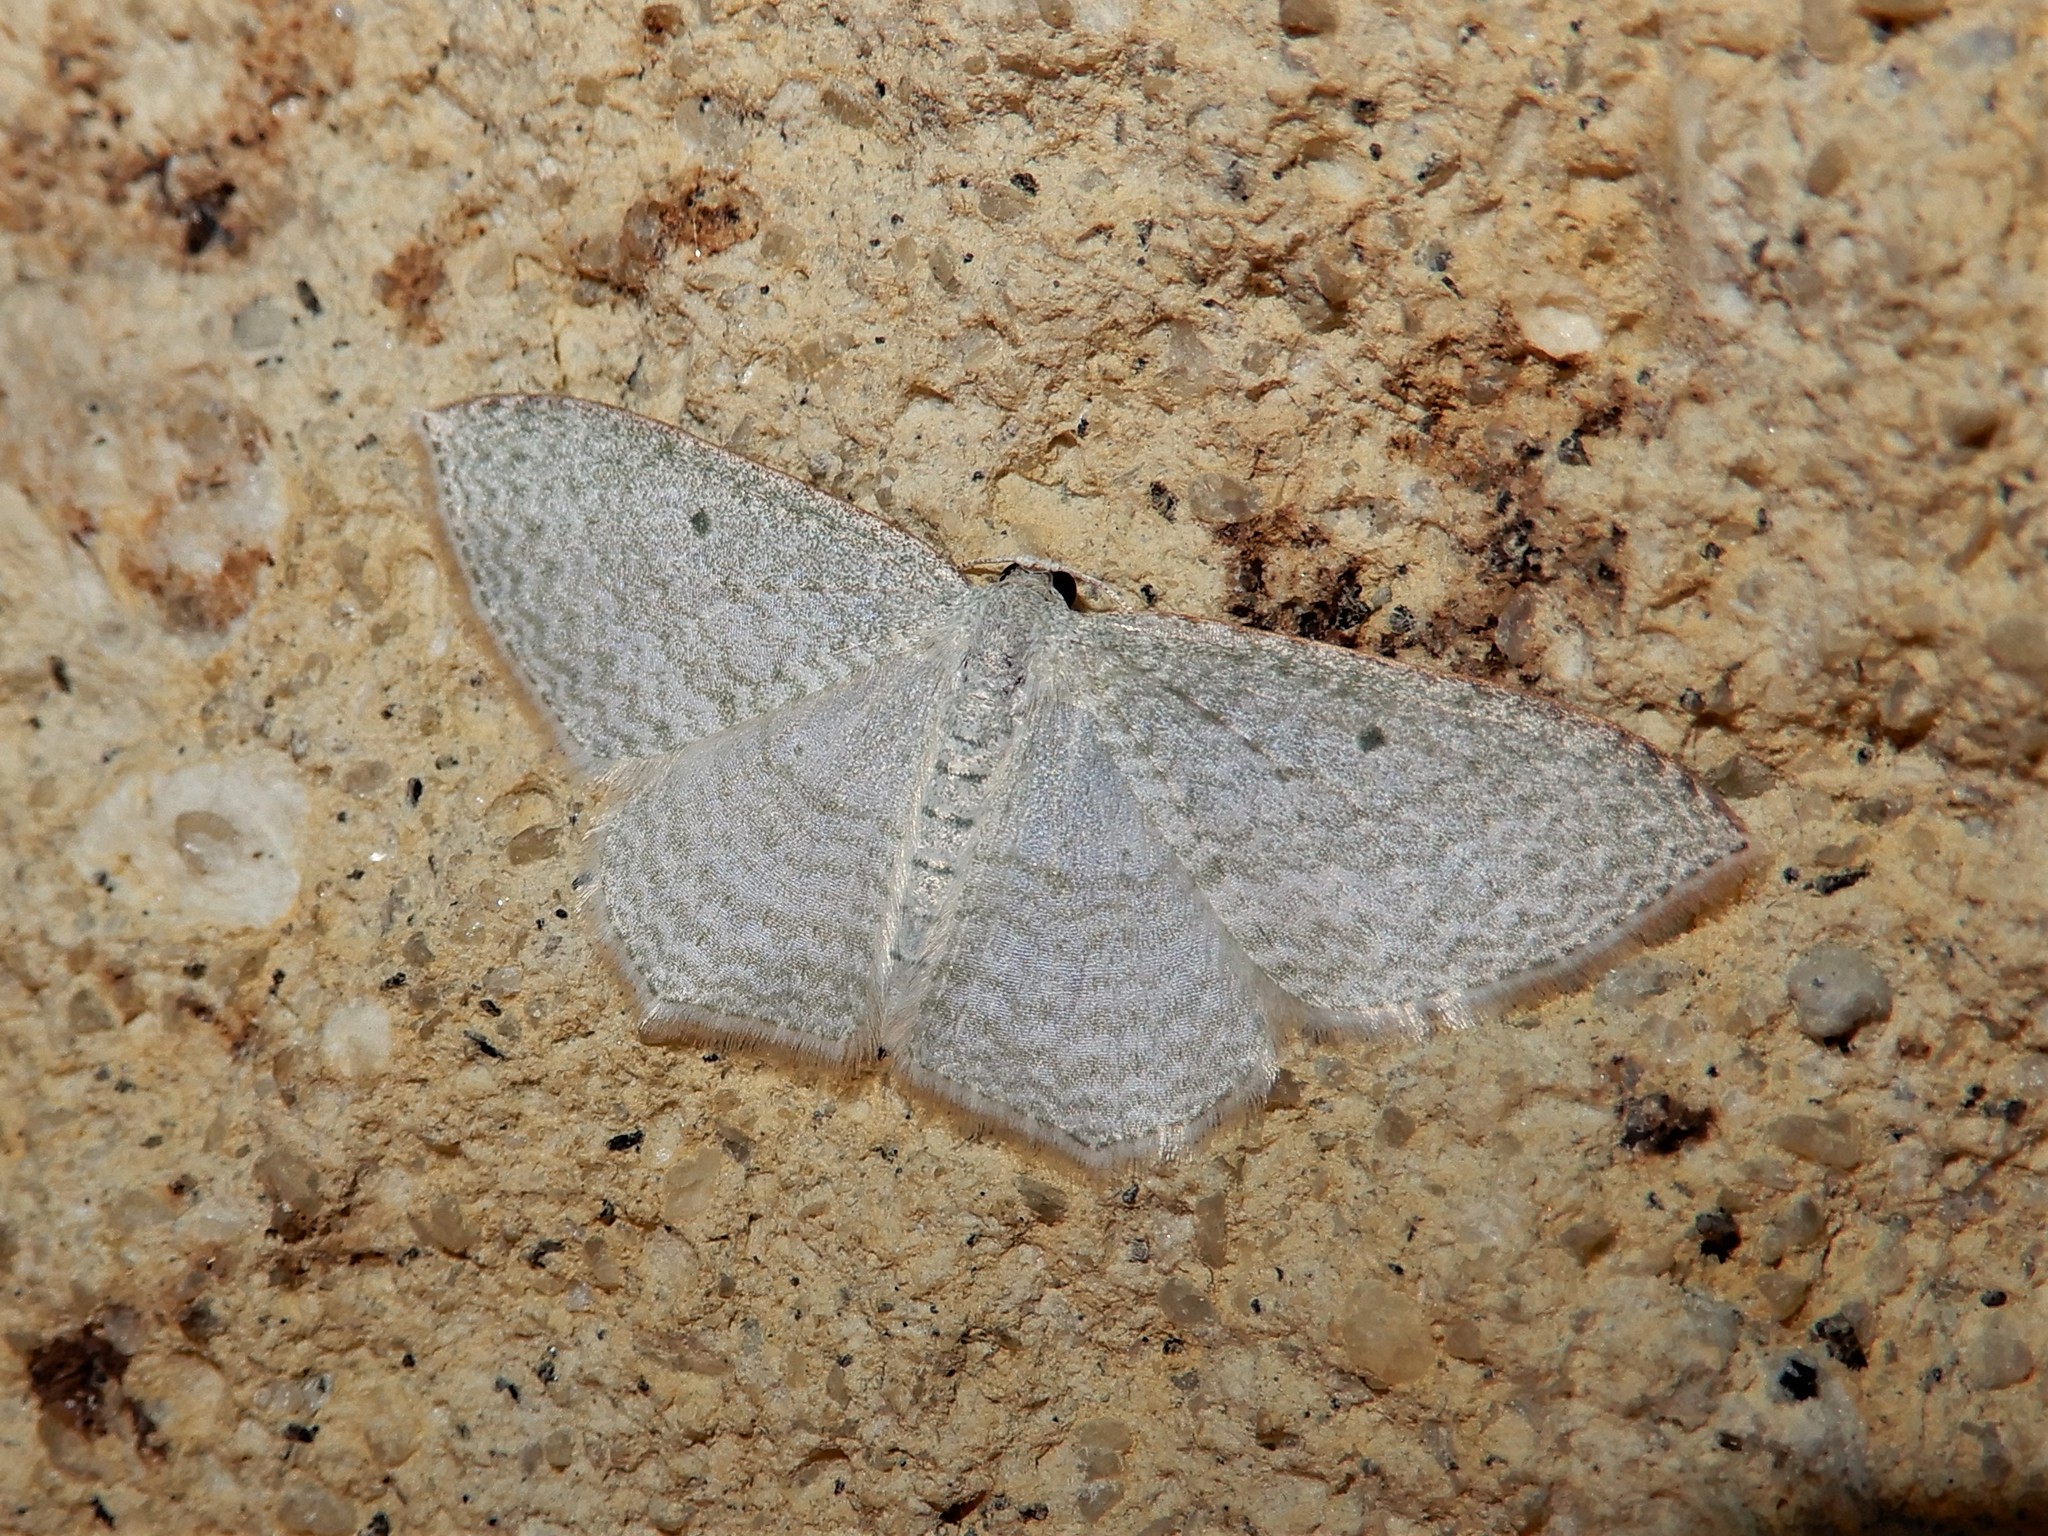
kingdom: Animalia
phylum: Arthropoda
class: Insecta
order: Lepidoptera
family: Geometridae
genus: Poecilasthena
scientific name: Poecilasthena pulchraria
